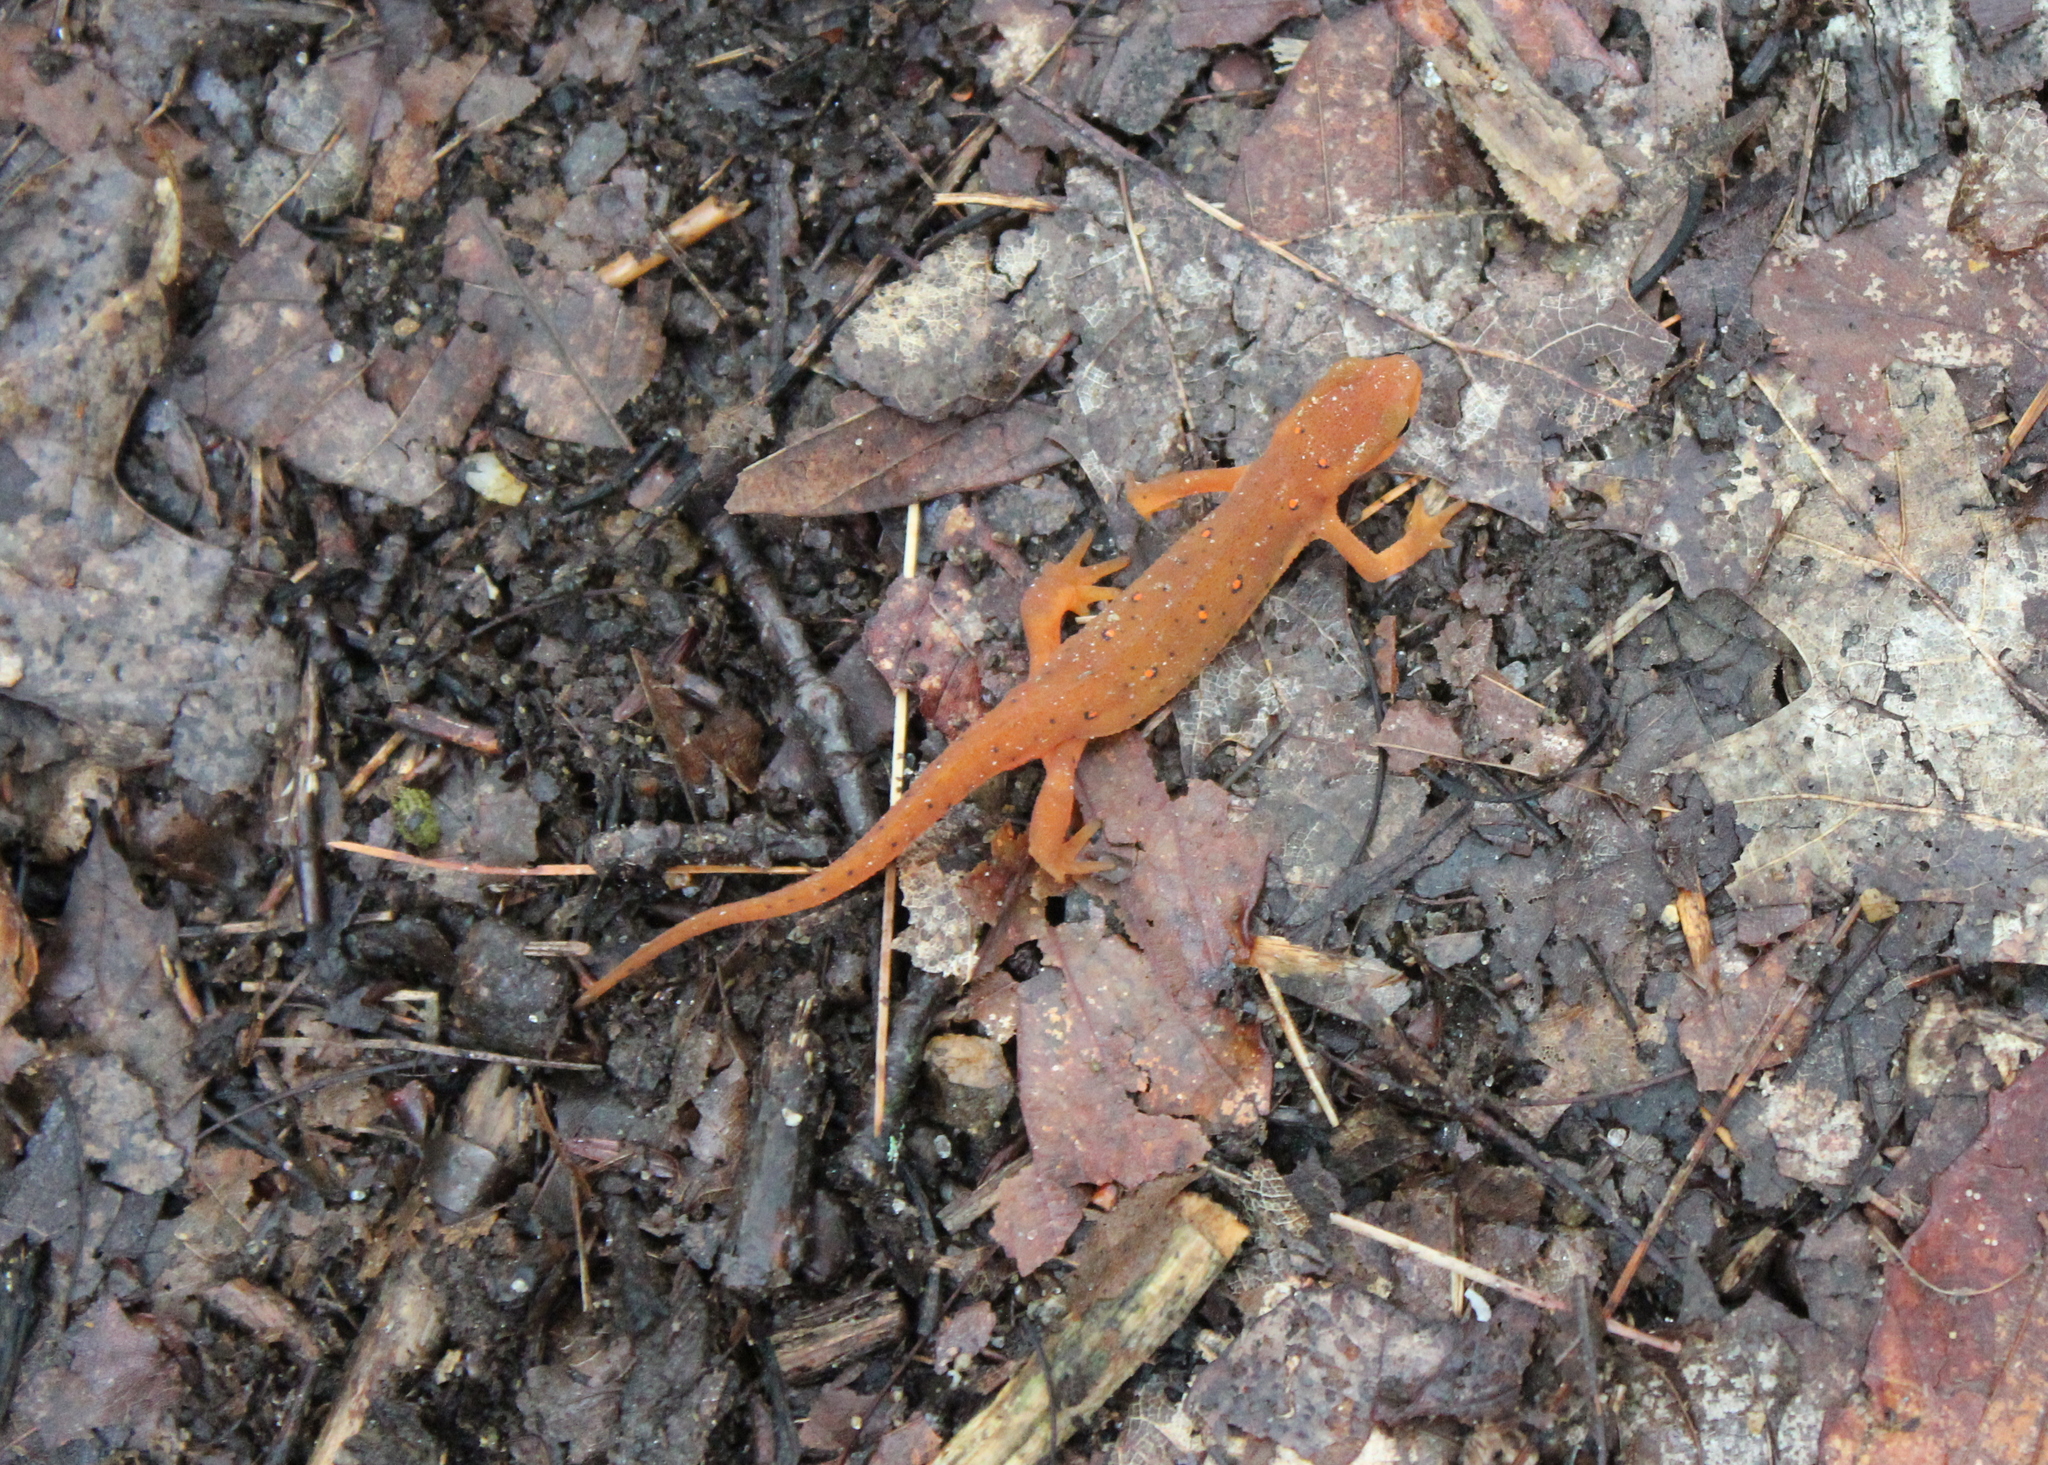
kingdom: Animalia
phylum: Chordata
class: Amphibia
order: Caudata
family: Salamandridae
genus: Notophthalmus
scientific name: Notophthalmus viridescens
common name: Eastern newt
